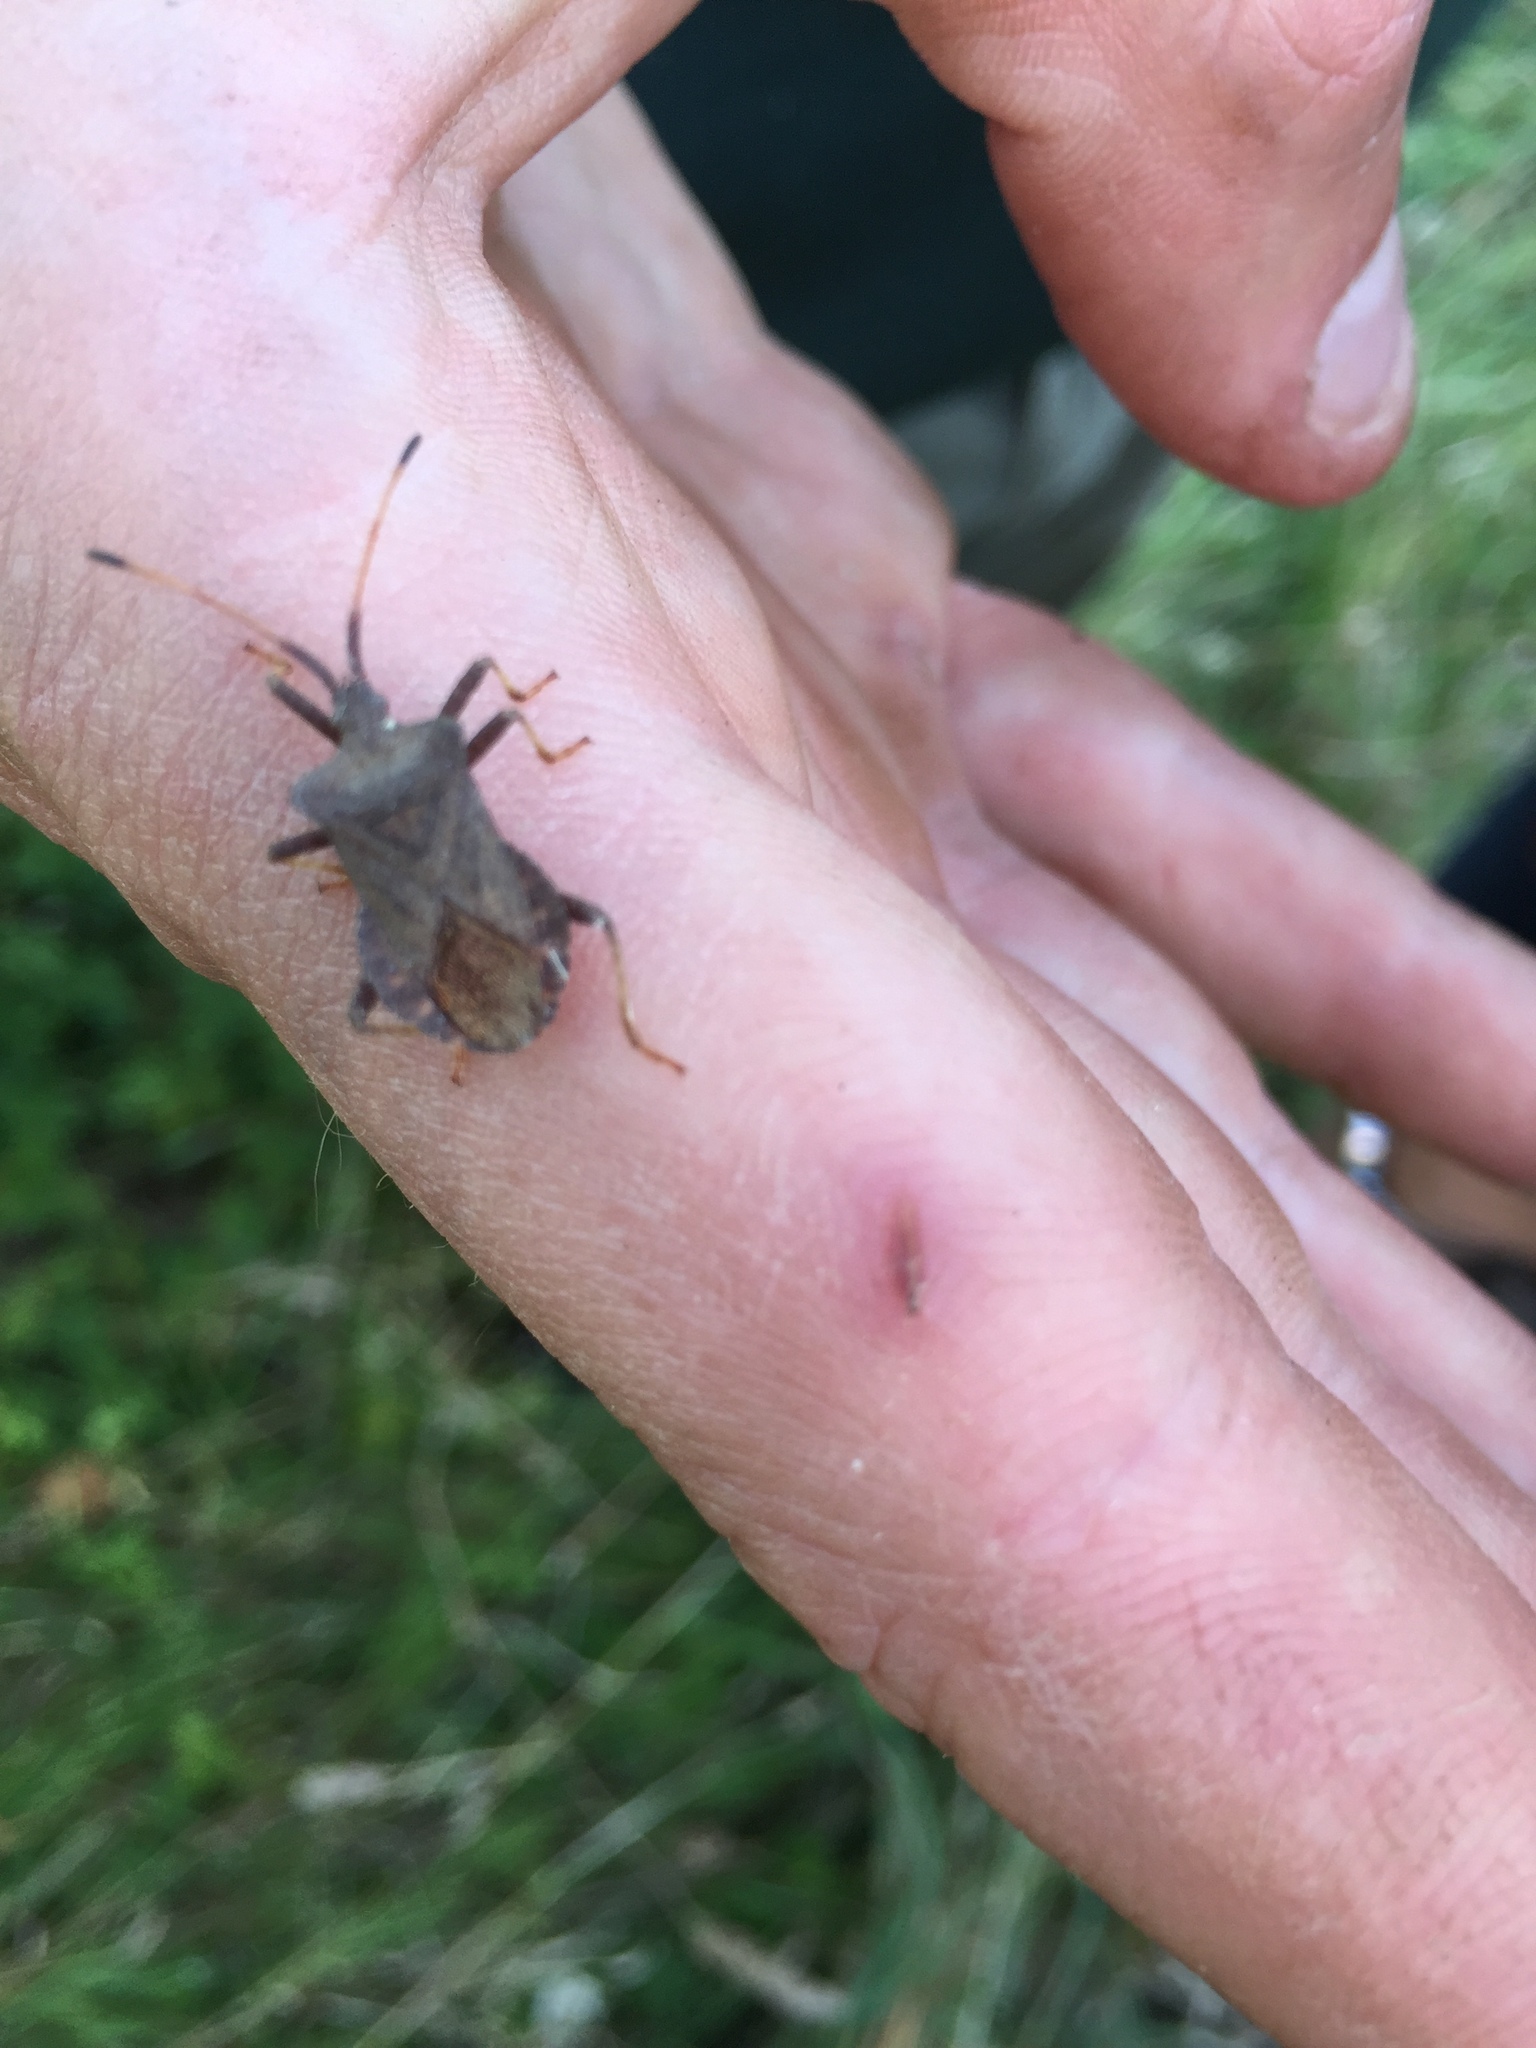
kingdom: Animalia
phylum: Arthropoda
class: Insecta
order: Hemiptera
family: Coreidae
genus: Coreus
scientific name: Coreus marginatus
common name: Dock bug
